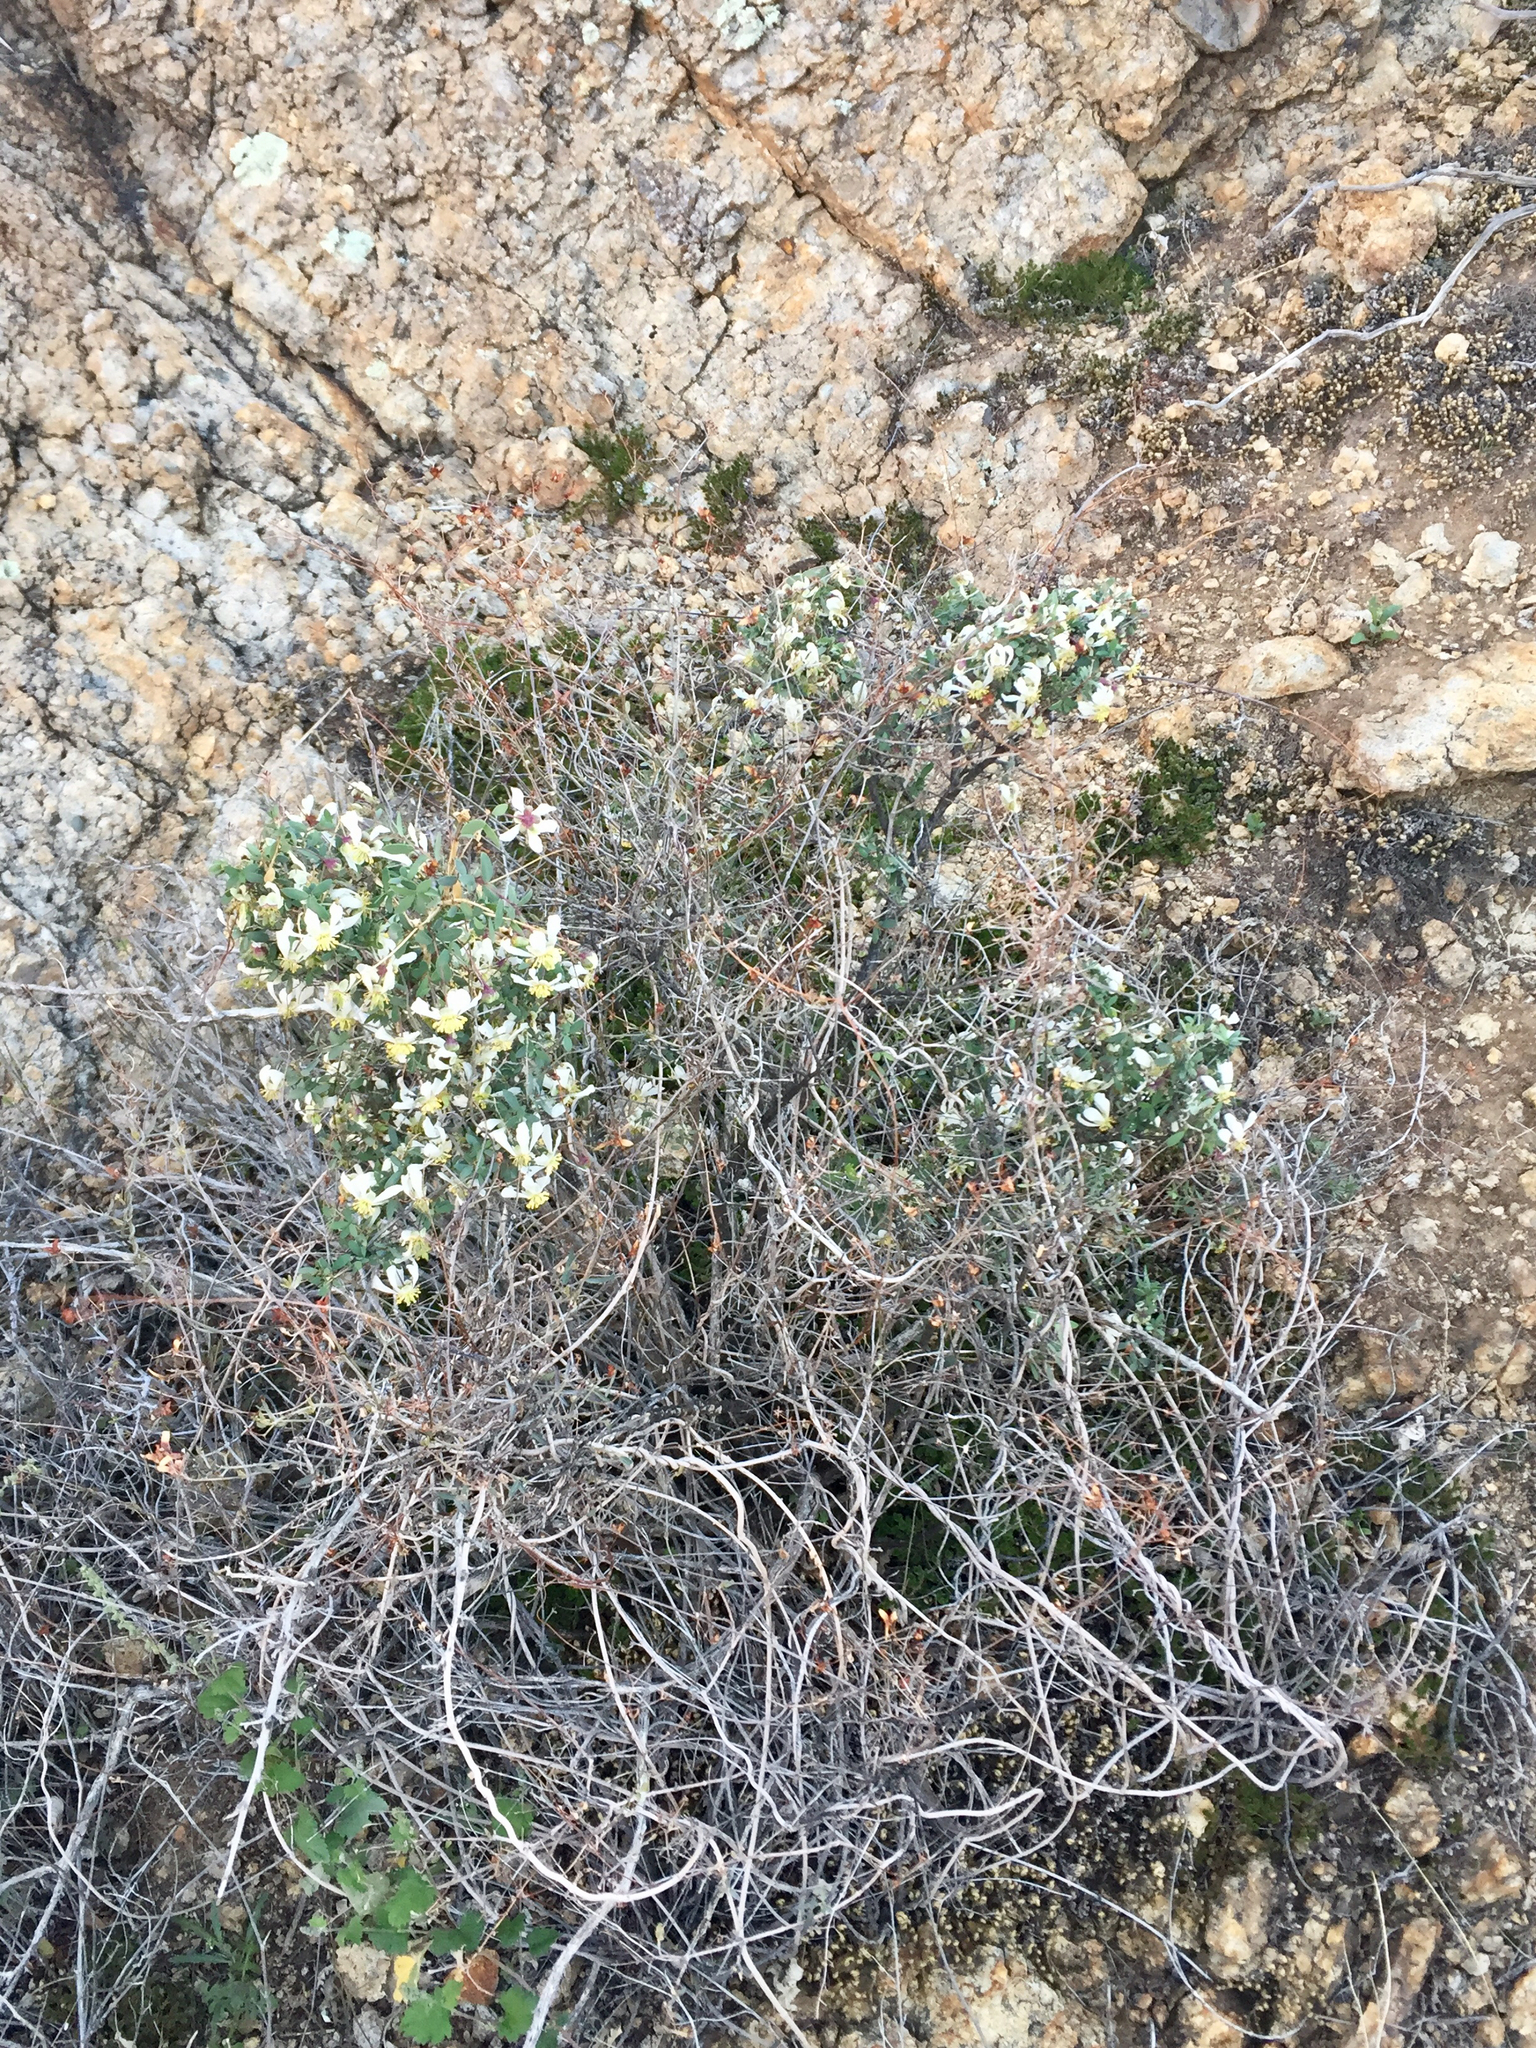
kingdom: Plantae
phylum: Tracheophyta
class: Magnoliopsida
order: Crossosomatales
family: Crossosomataceae
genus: Crossosoma
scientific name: Crossosoma bigelovii
